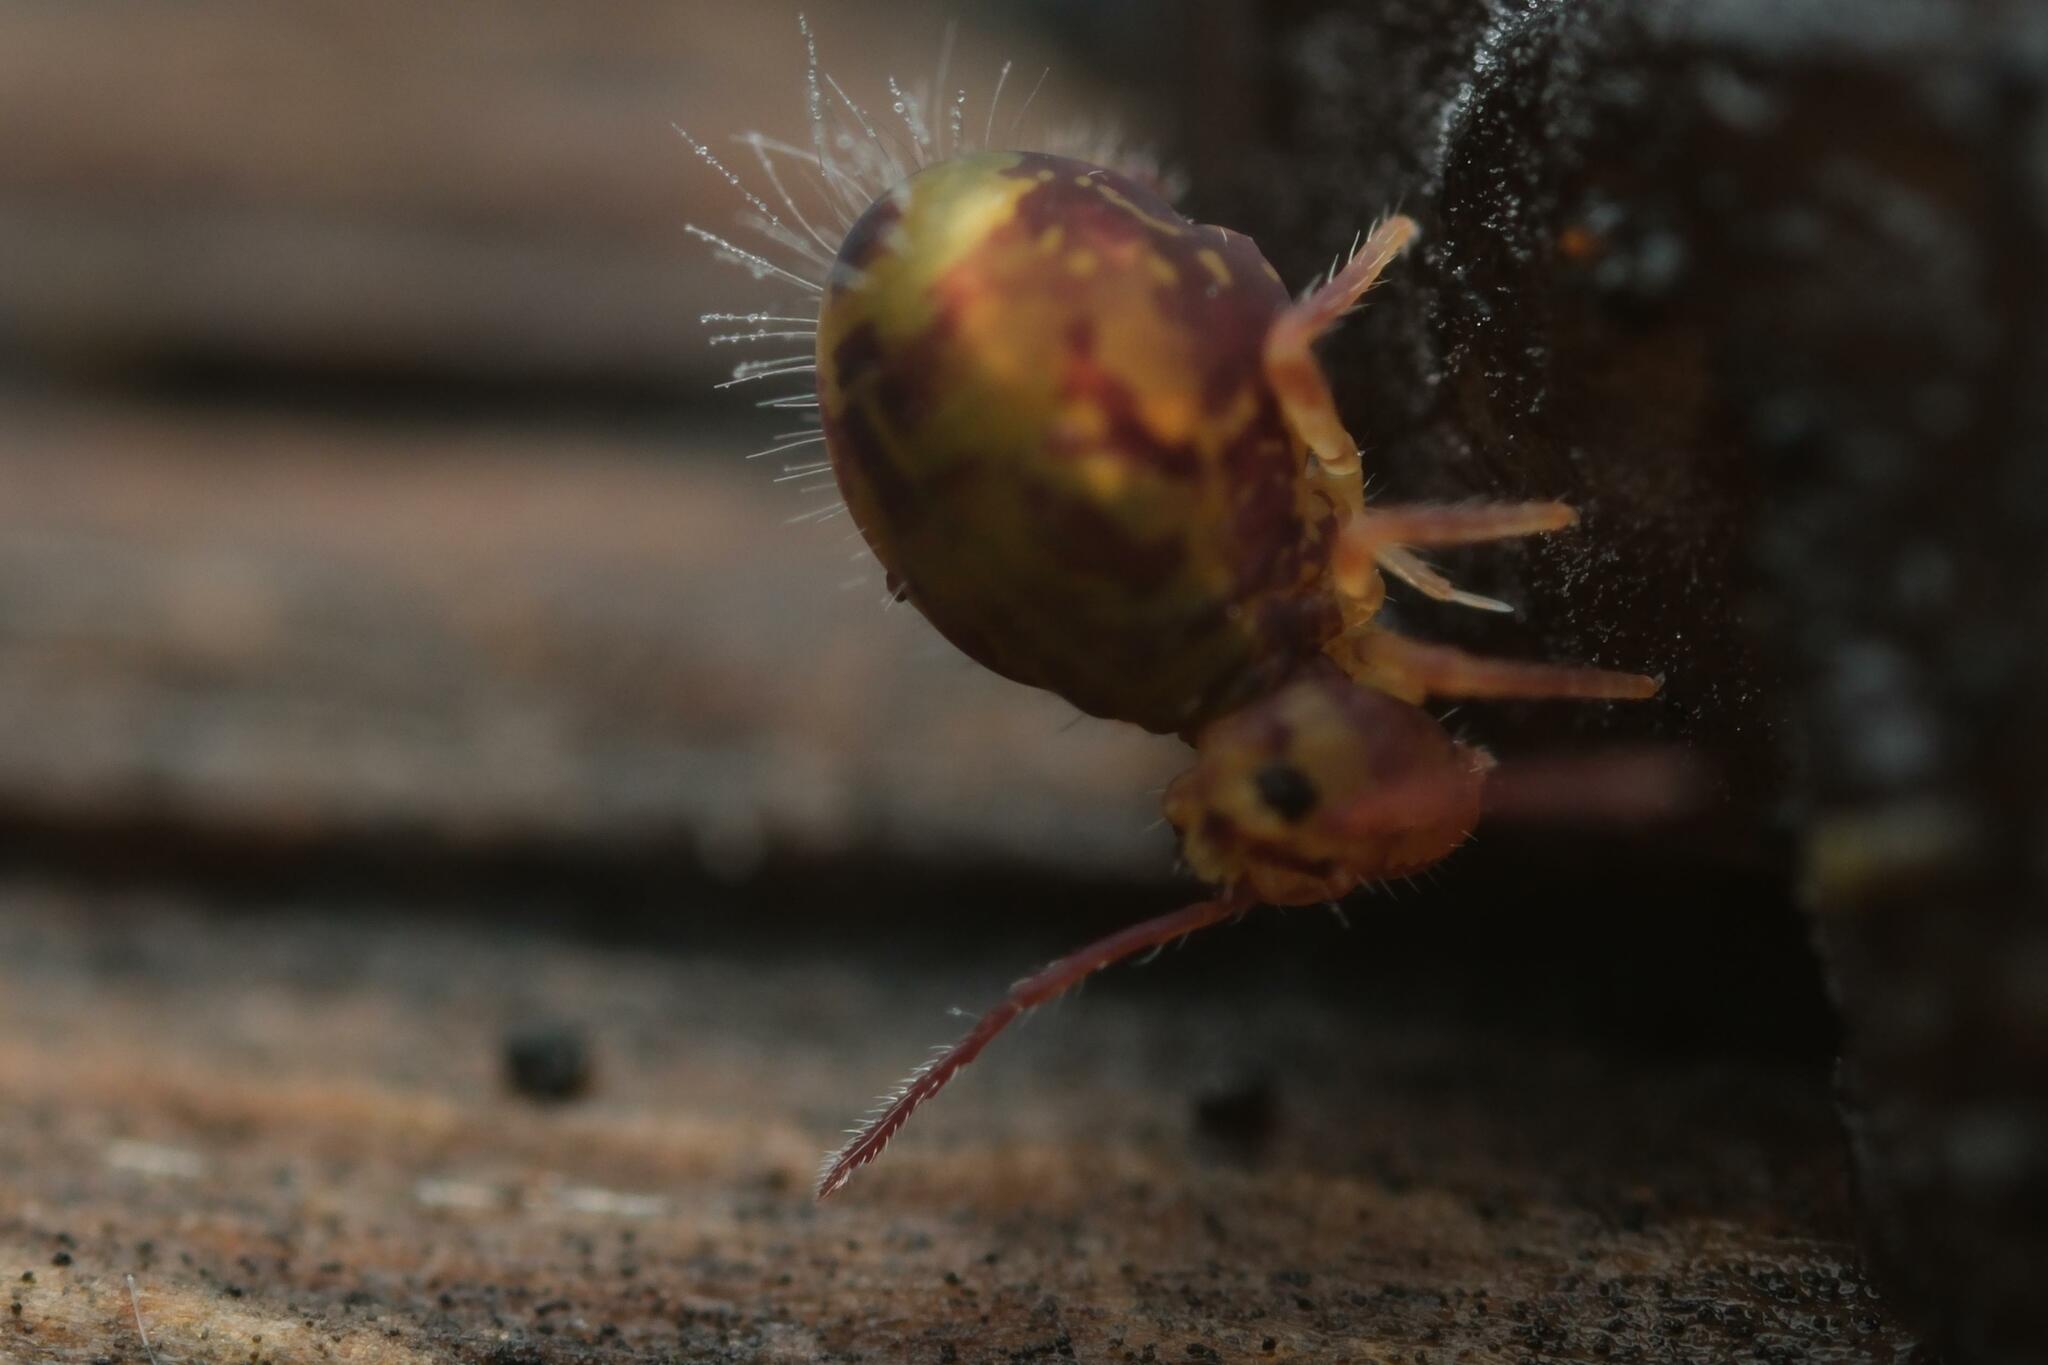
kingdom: Animalia
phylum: Arthropoda
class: Collembola
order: Symphypleona
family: Dicyrtomidae
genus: Dicyrtomina
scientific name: Dicyrtomina ornata
